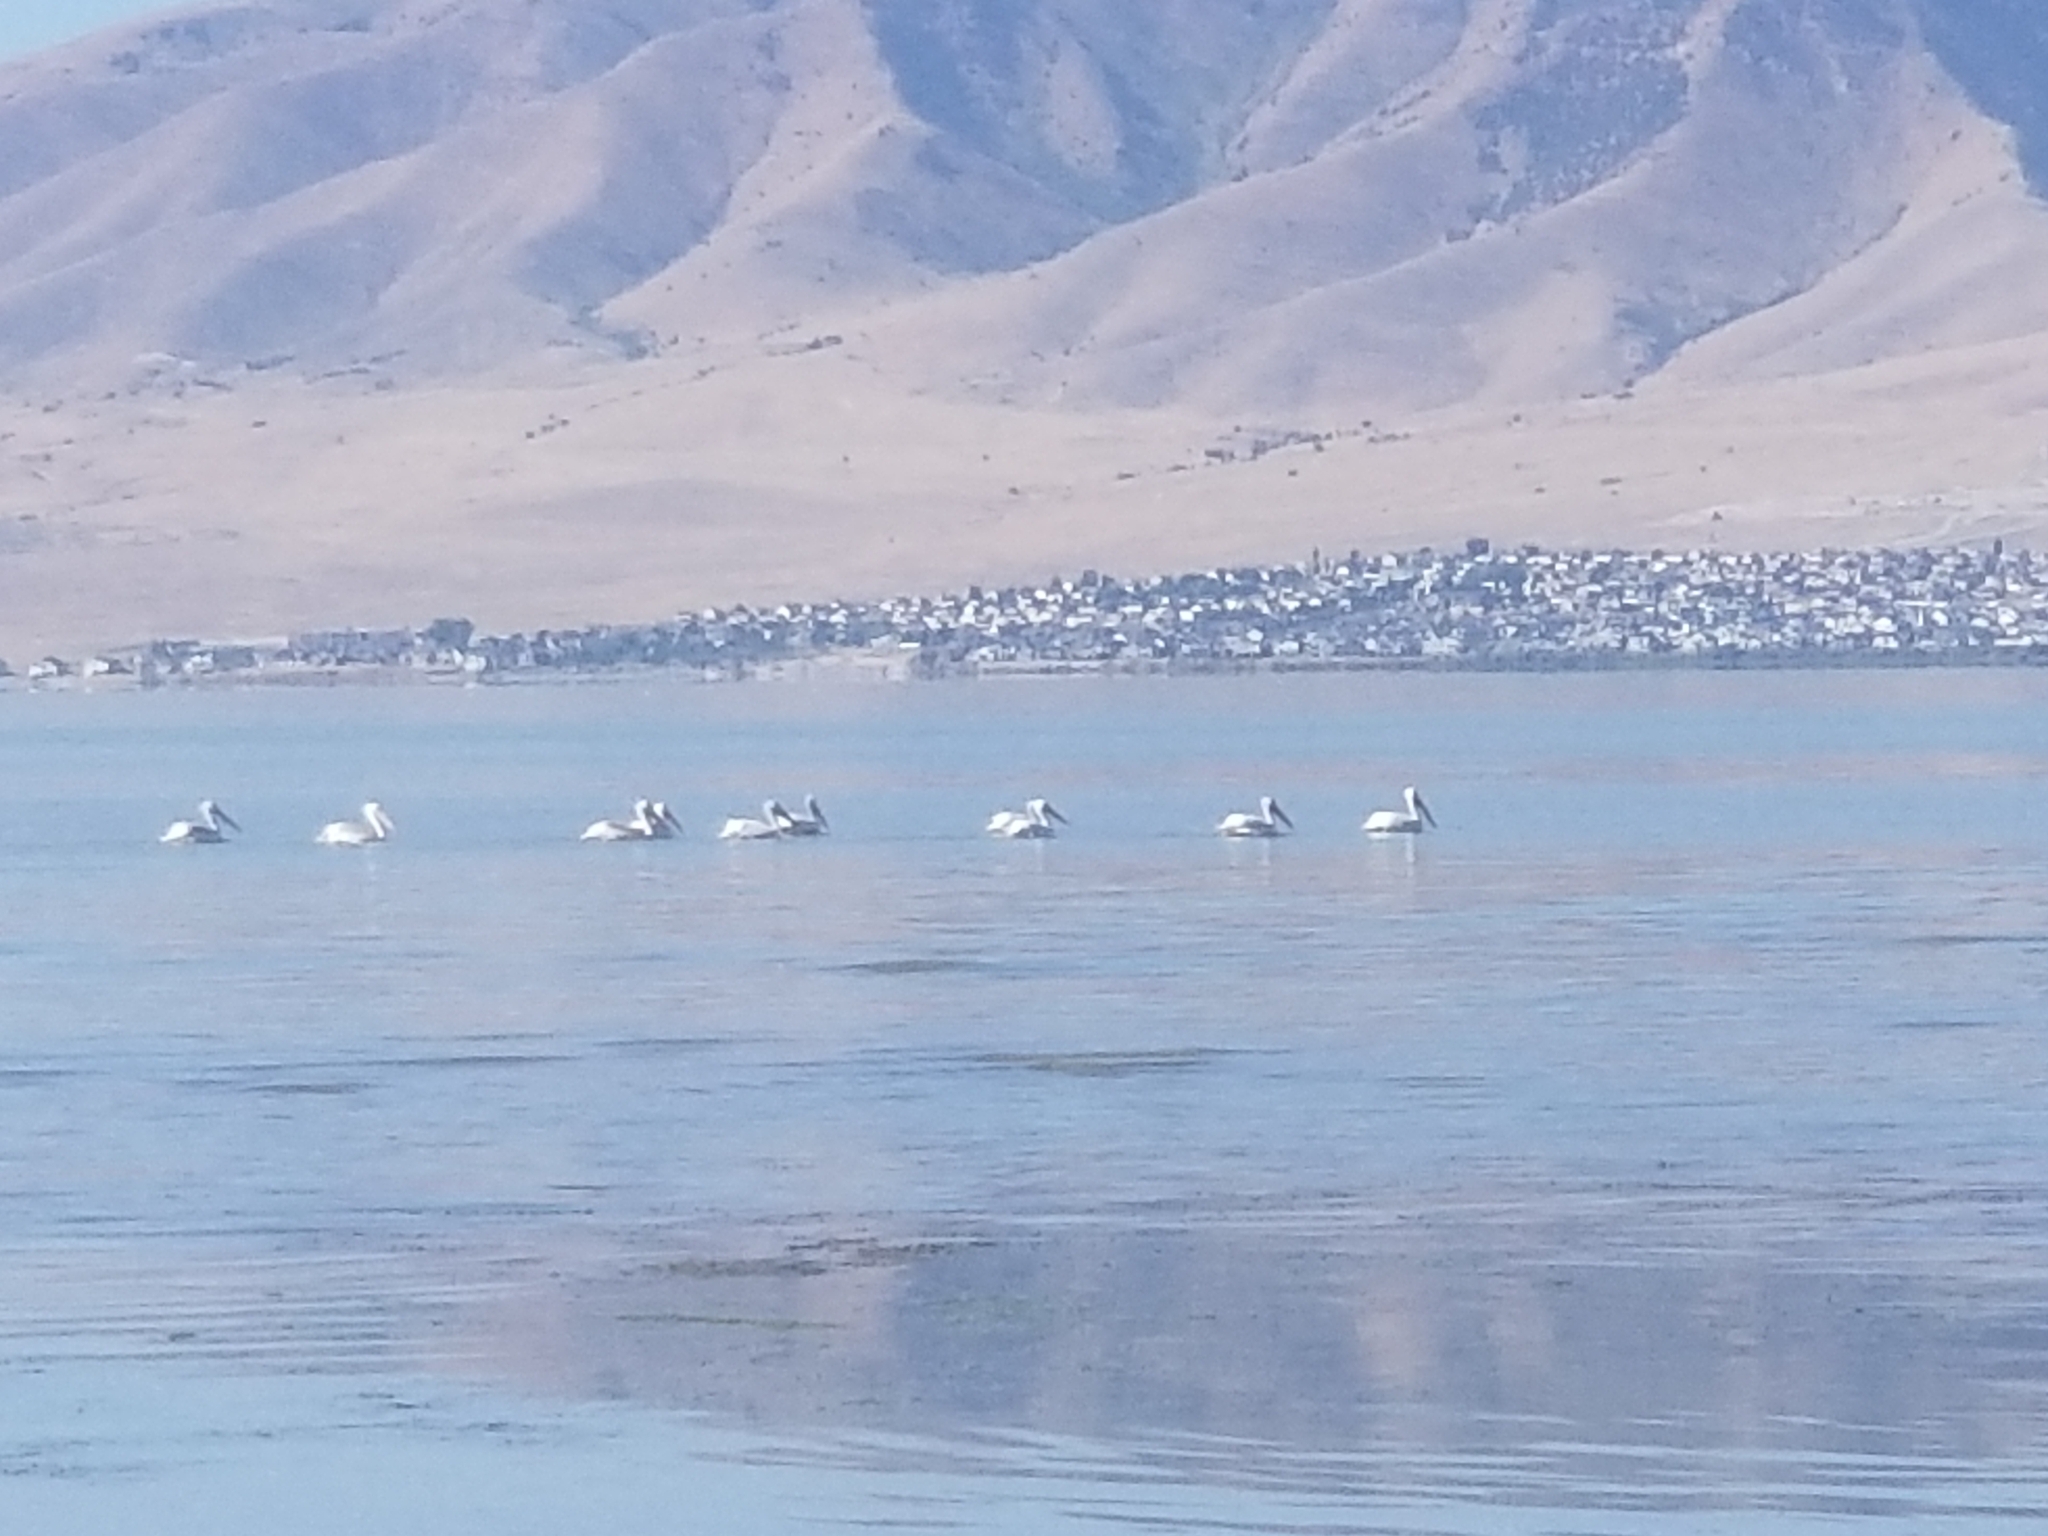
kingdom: Animalia
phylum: Chordata
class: Aves
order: Pelecaniformes
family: Pelecanidae
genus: Pelecanus
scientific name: Pelecanus erythrorhynchos
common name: American white pelican
